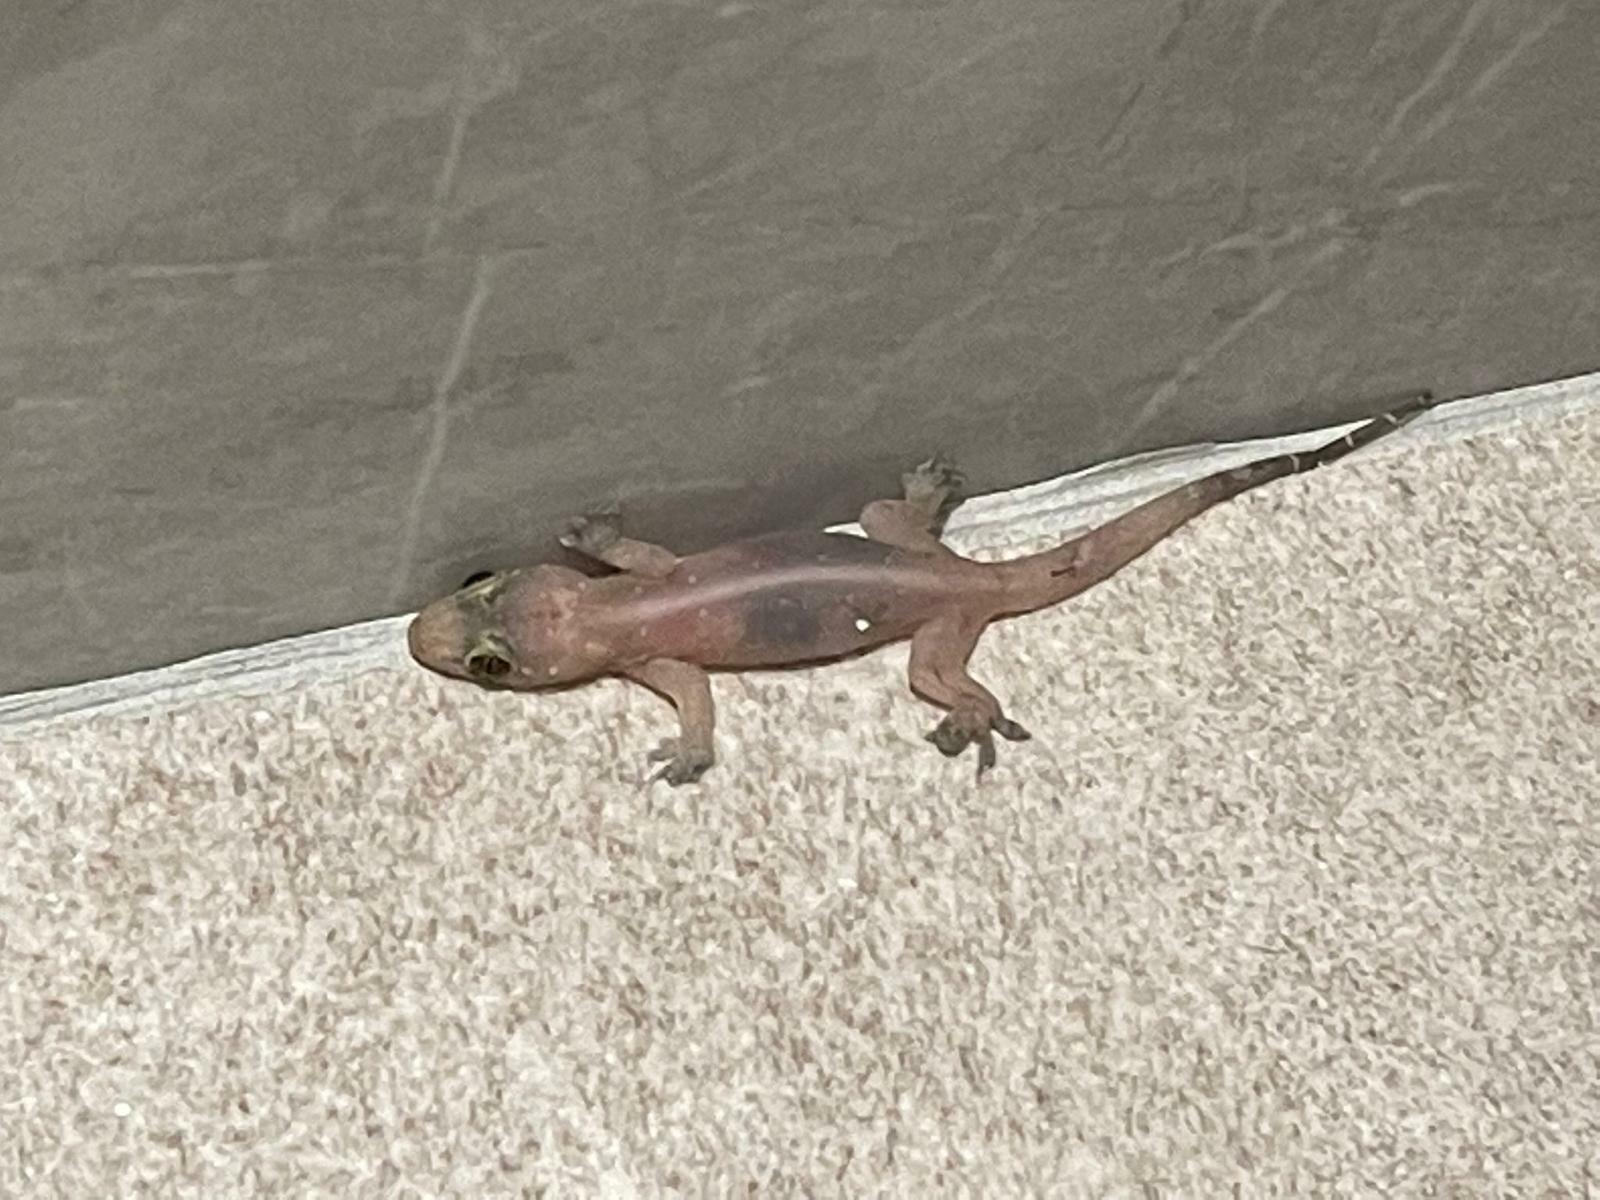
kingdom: Animalia
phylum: Chordata
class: Squamata
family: Gekkonidae
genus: Gehyra
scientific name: Gehyra mutilata
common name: Stump-toed gecko
